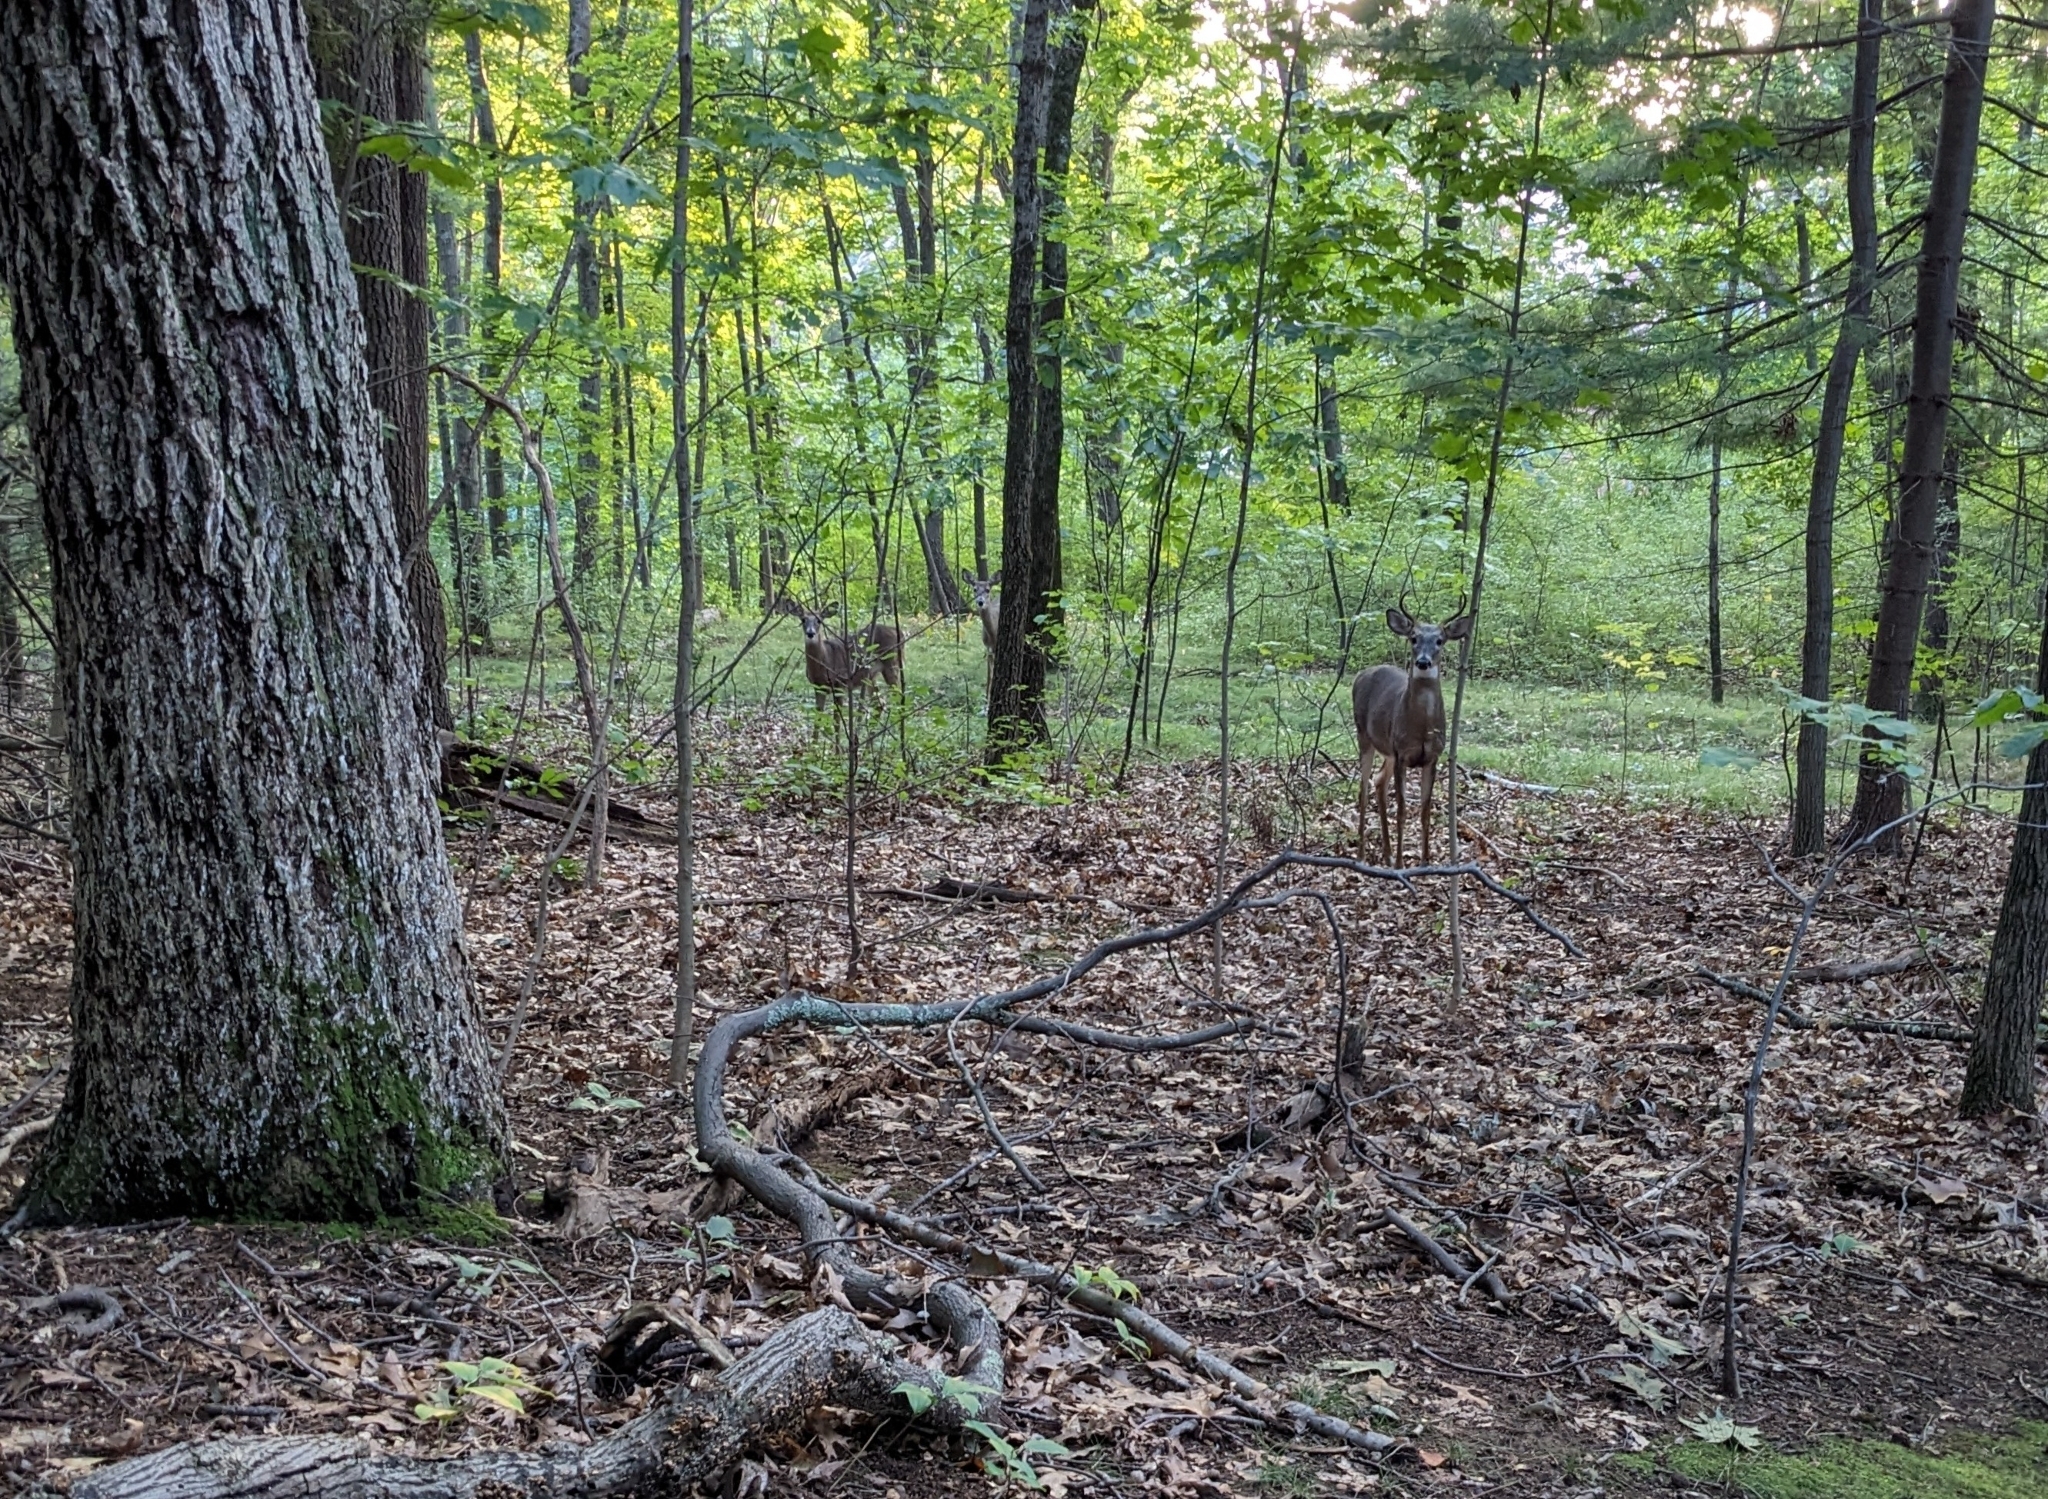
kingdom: Animalia
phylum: Chordata
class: Mammalia
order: Artiodactyla
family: Cervidae
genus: Odocoileus
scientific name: Odocoileus virginianus
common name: White-tailed deer
